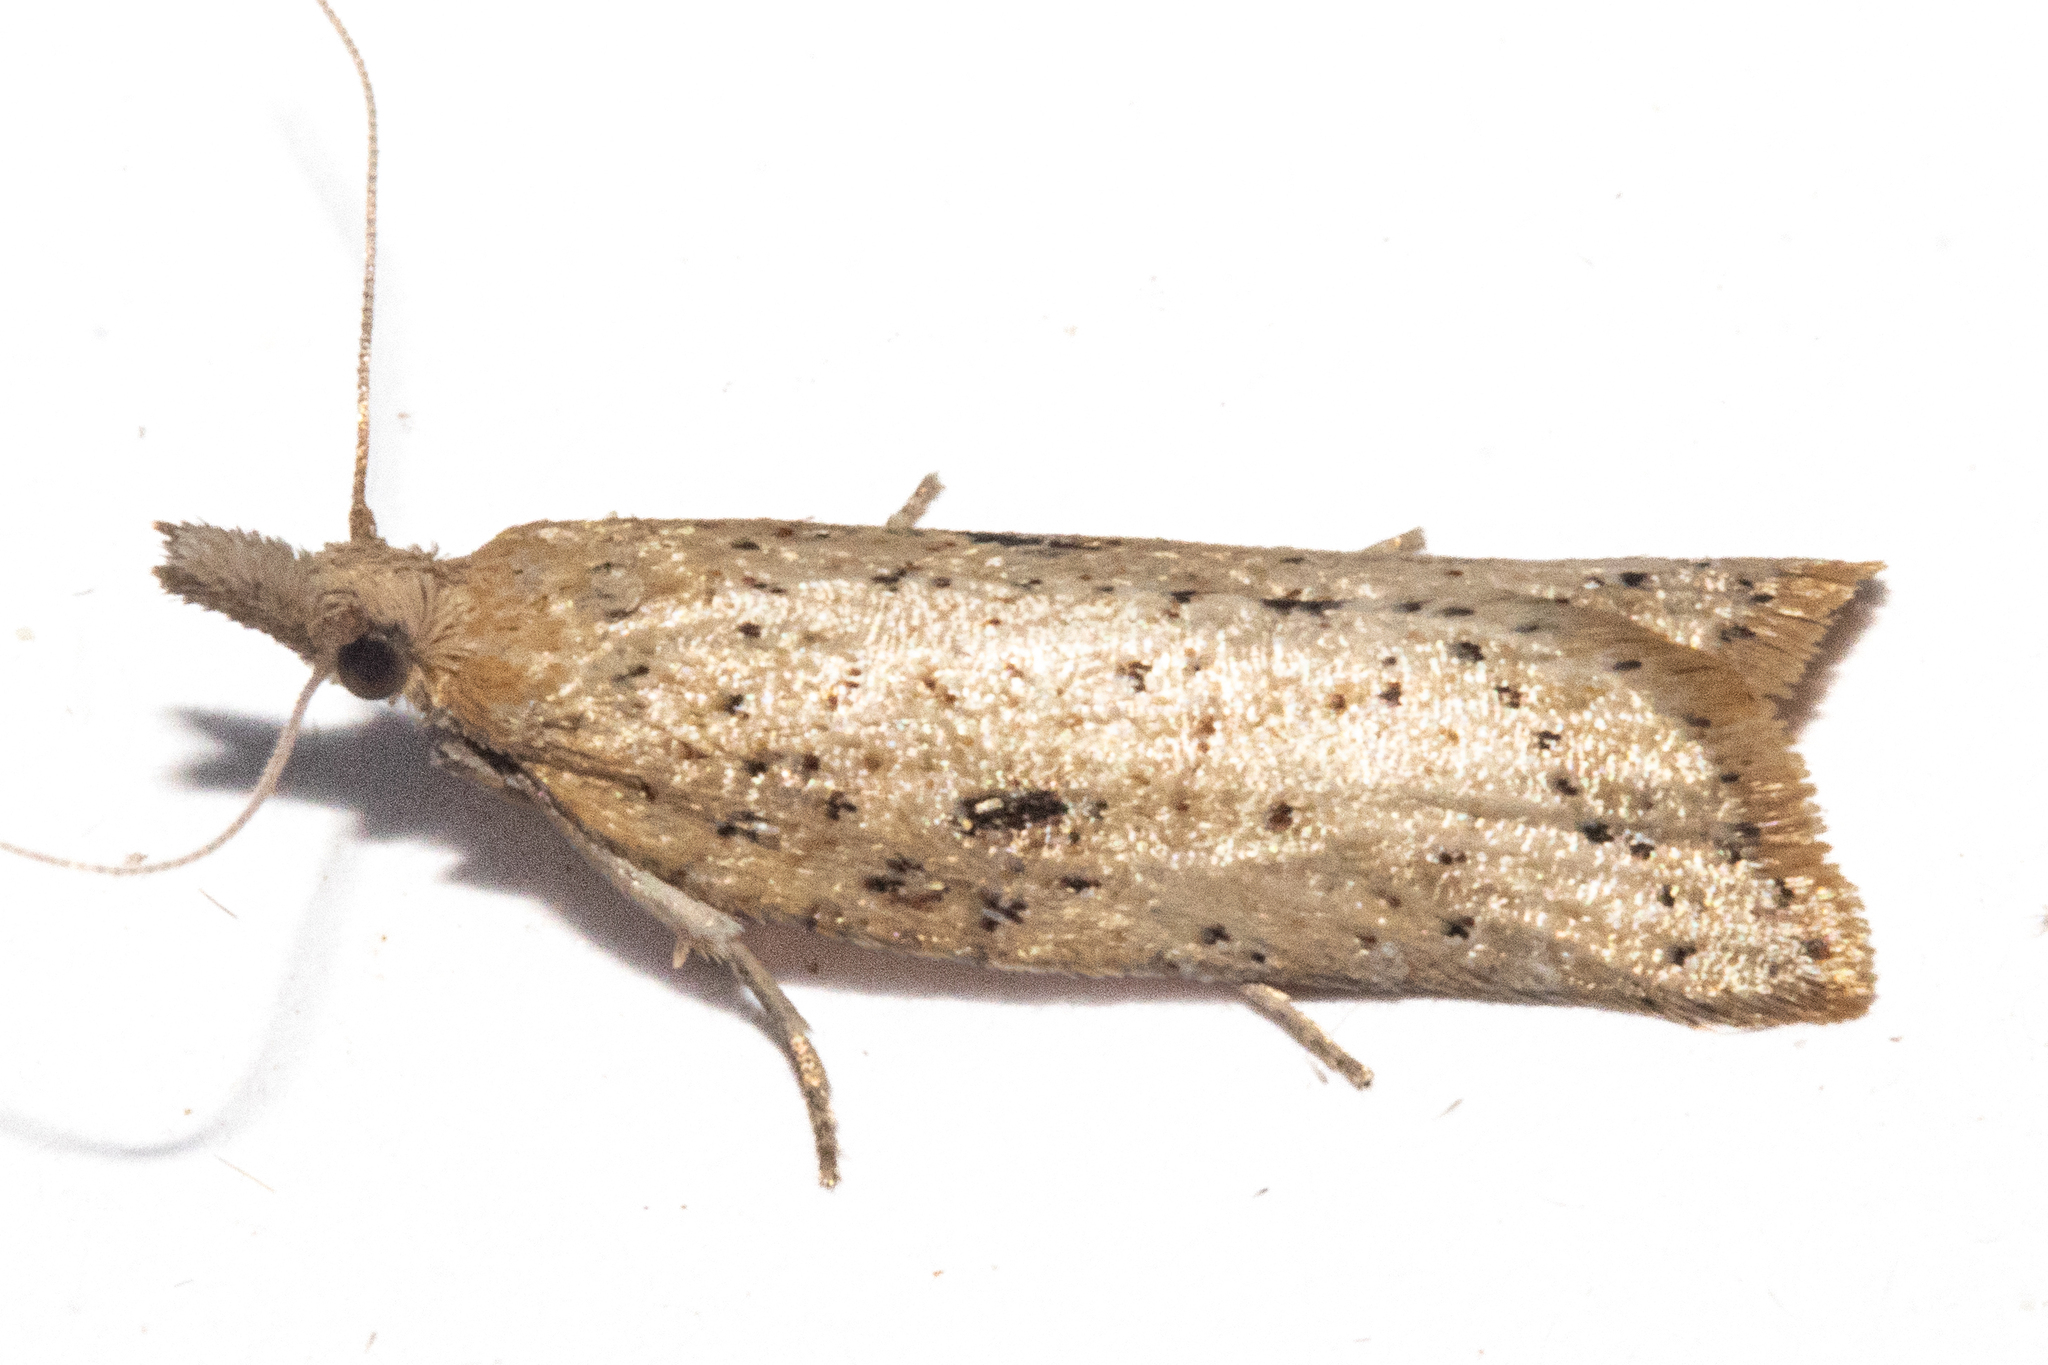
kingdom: Animalia
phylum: Arthropoda
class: Insecta
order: Lepidoptera
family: Tortricidae
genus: Apoctena
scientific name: Apoctena persecta
